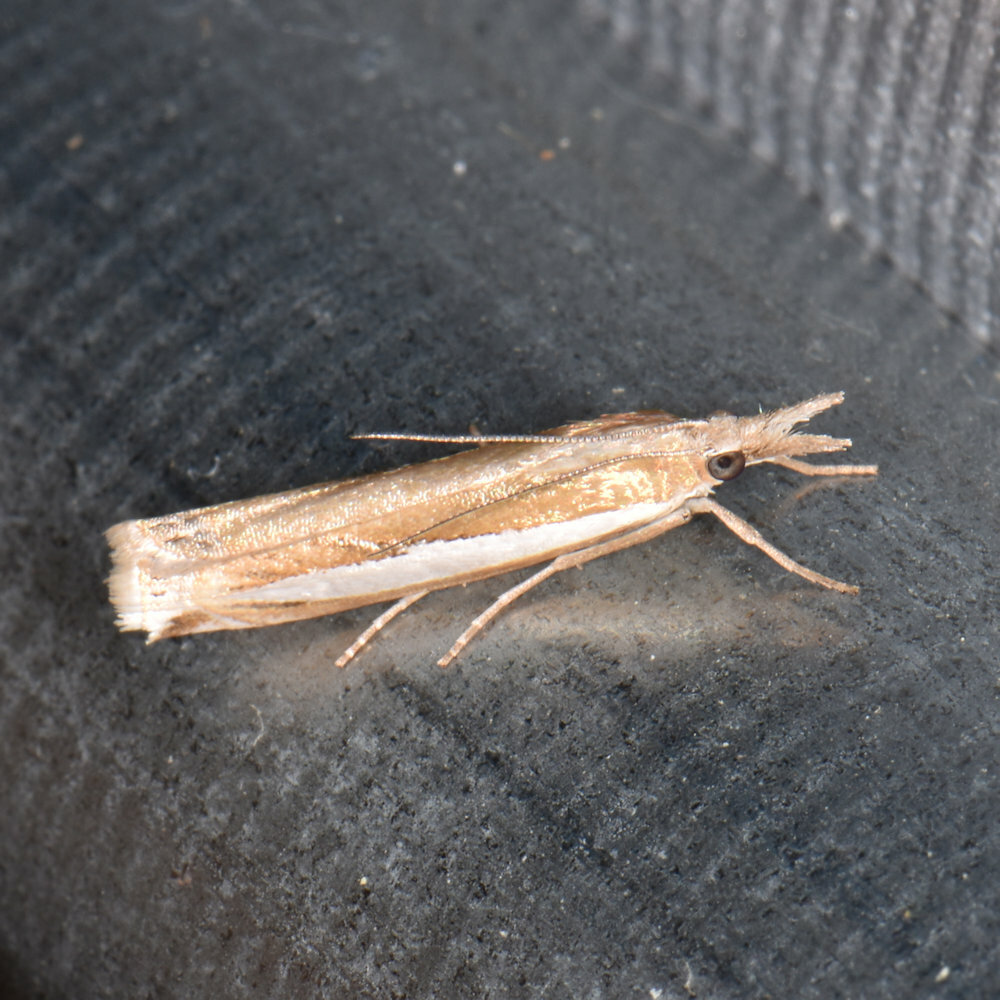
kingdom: Animalia
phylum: Arthropoda
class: Insecta
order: Lepidoptera
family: Crambidae
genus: Crambus
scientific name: Crambus praefectellus
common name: Common grass-veneer
